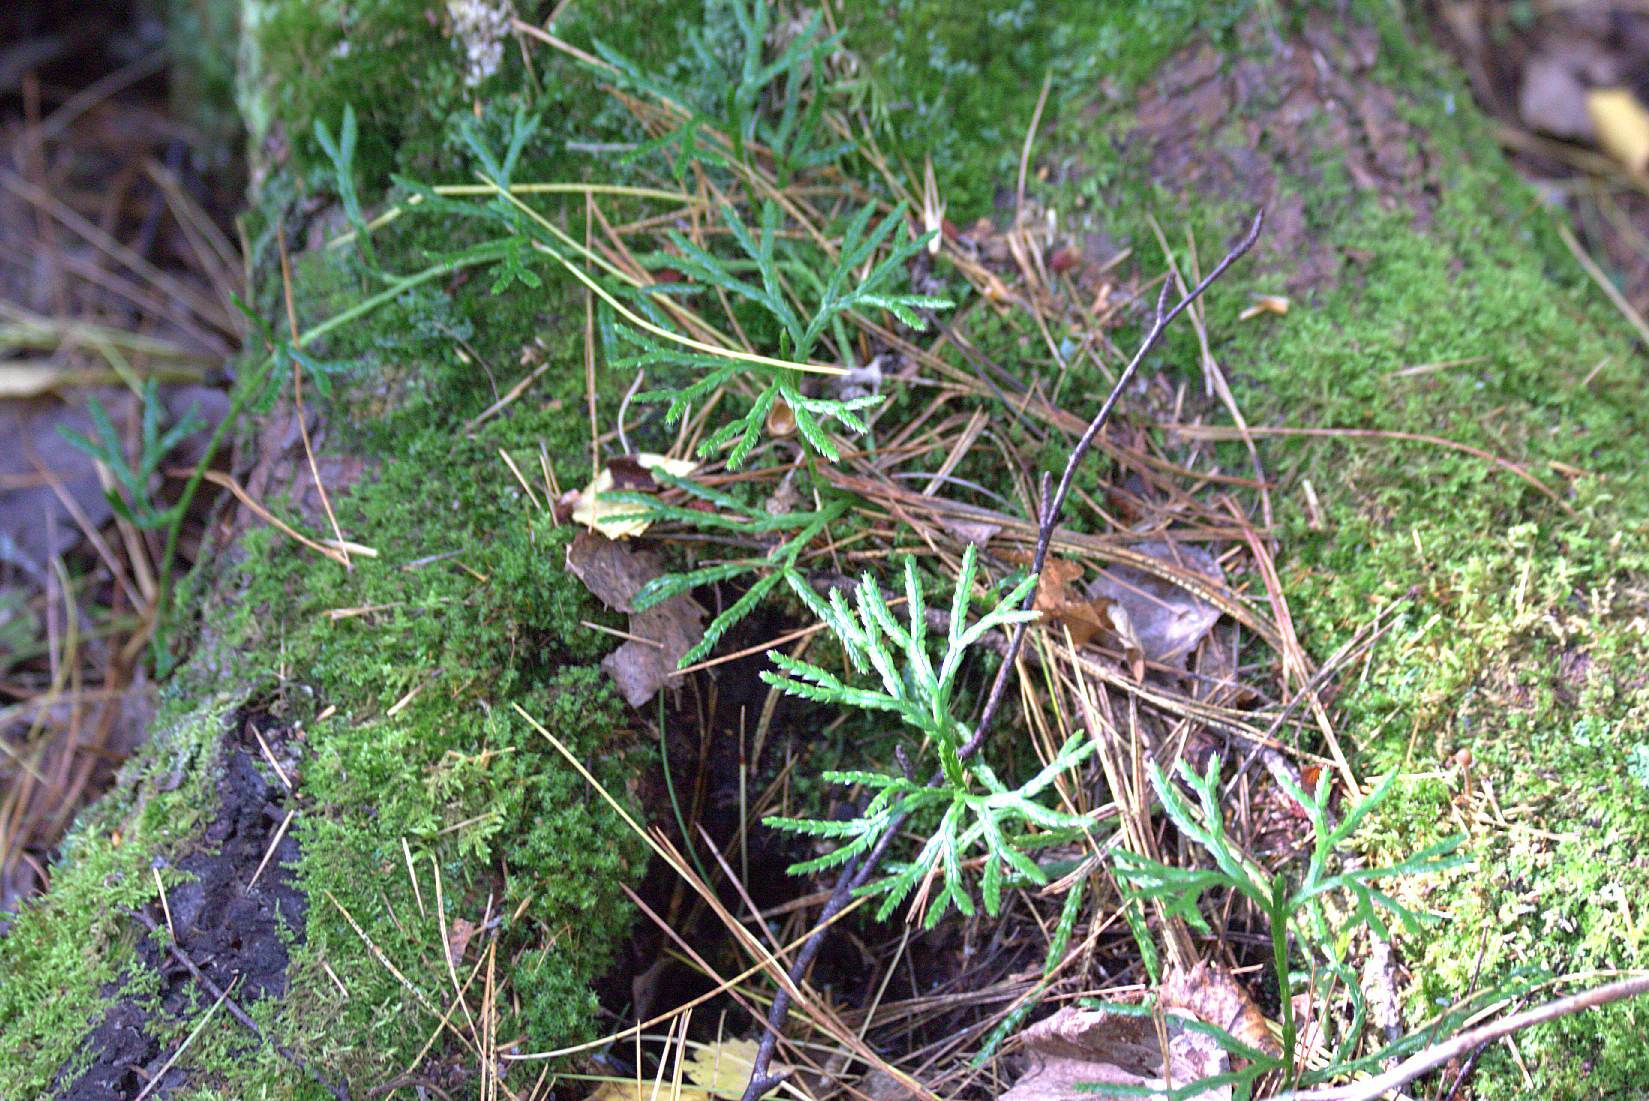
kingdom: Plantae
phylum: Tracheophyta
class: Lycopodiopsida
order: Lycopodiales
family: Lycopodiaceae
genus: Diphasiastrum
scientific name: Diphasiastrum complanatum
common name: Northern running-pine
